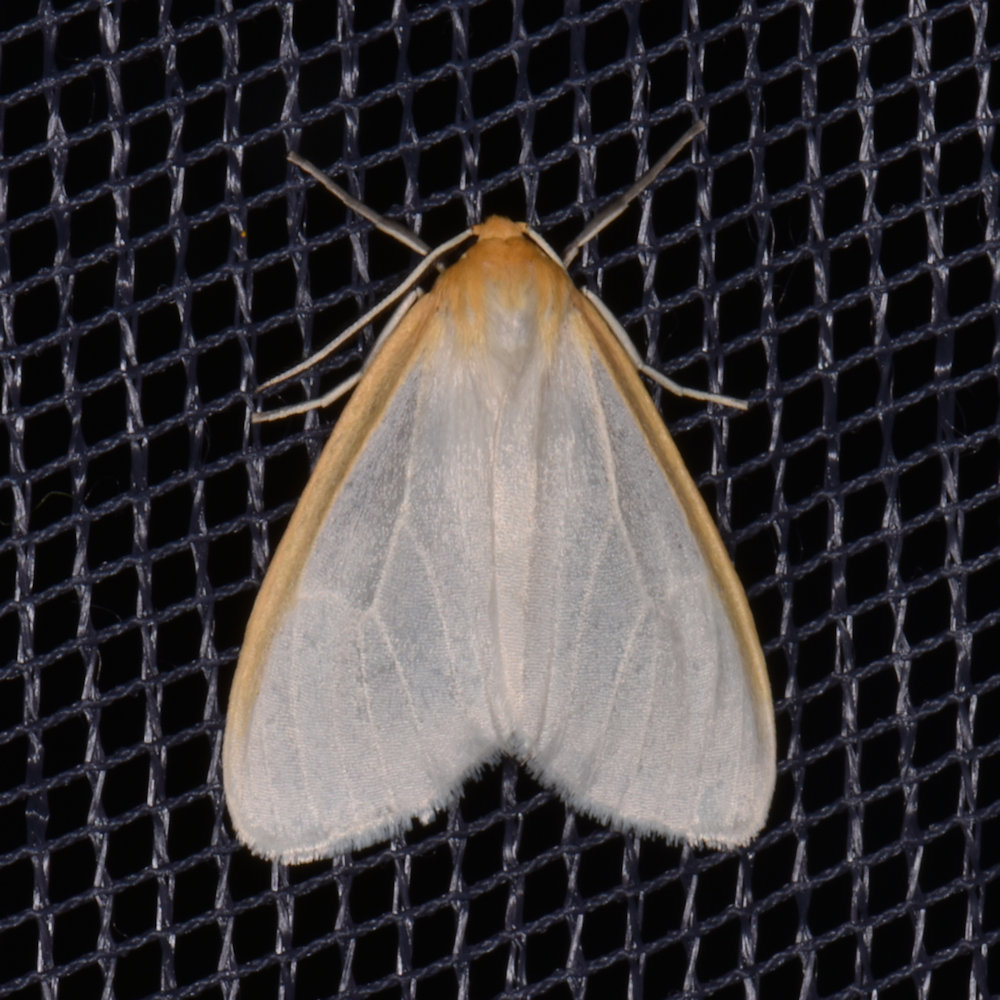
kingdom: Animalia
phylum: Arthropoda
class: Insecta
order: Lepidoptera
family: Erebidae
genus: Cycnia
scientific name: Cycnia tenera
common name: Delicate cycnia moth
